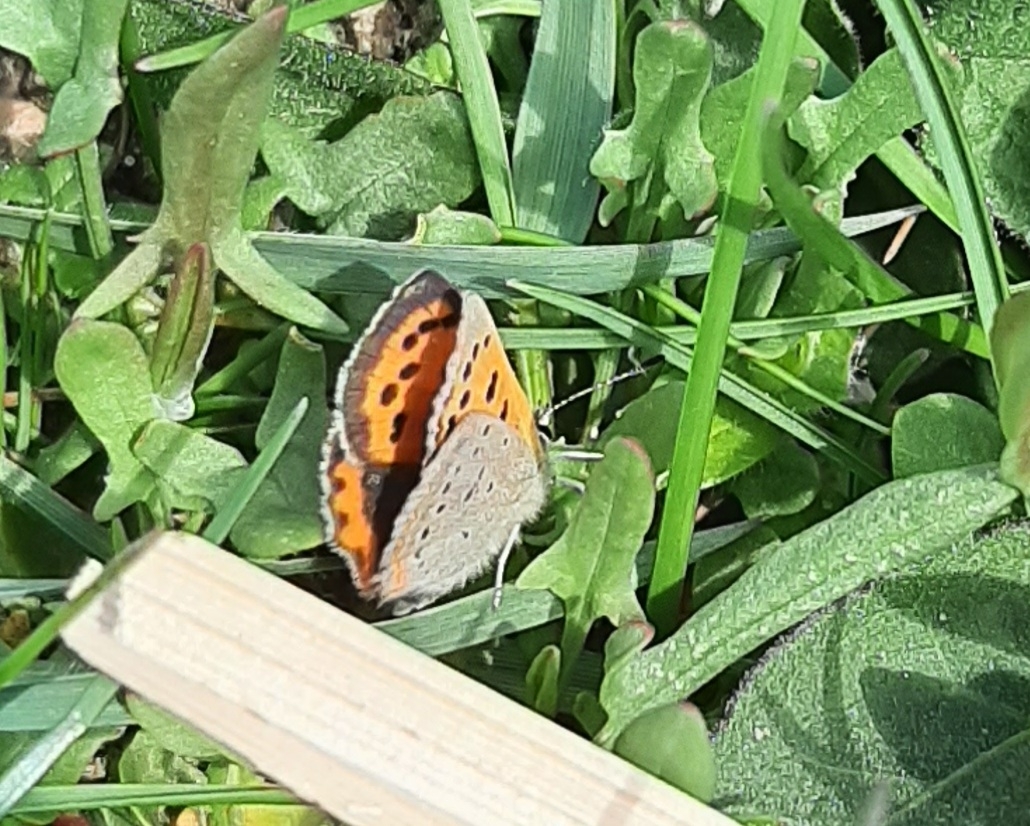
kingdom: Animalia
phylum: Arthropoda
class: Insecta
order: Lepidoptera
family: Lycaenidae
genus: Lycaena
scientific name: Lycaena hypophlaeas
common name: American copper
